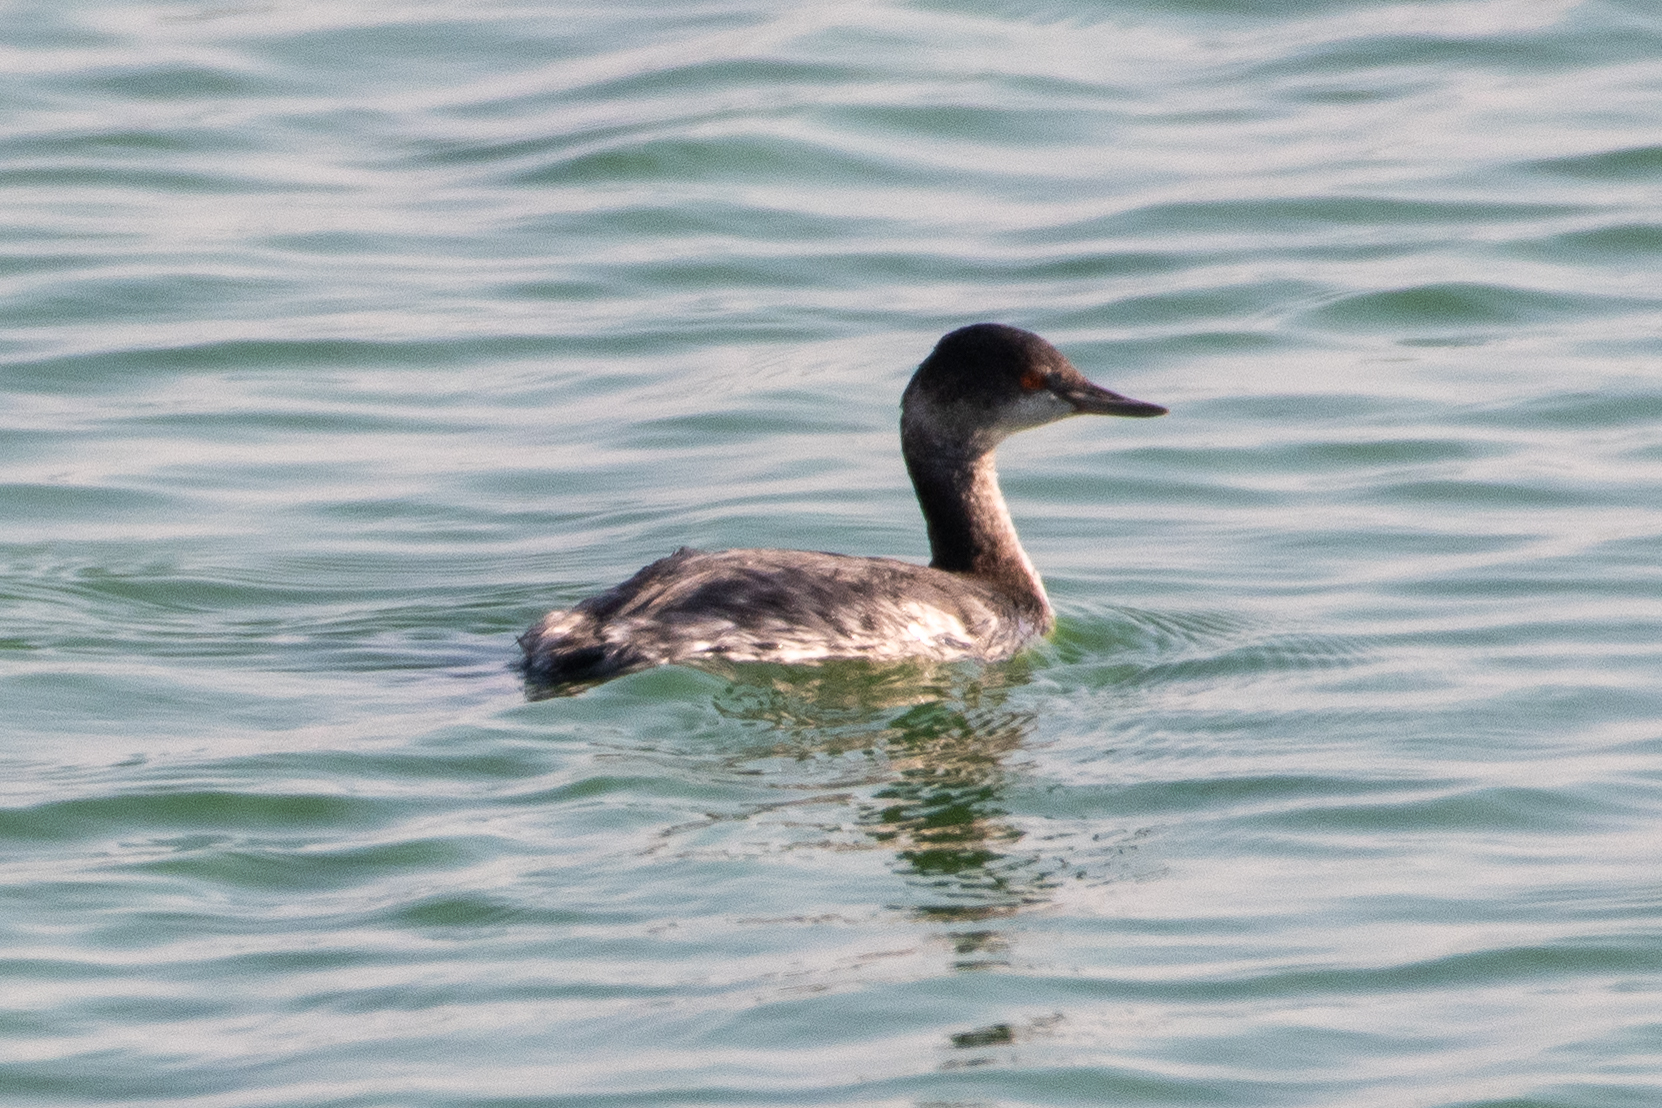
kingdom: Animalia
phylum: Chordata
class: Aves
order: Podicipediformes
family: Podicipedidae
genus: Podiceps
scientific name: Podiceps nigricollis
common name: Black-necked grebe
